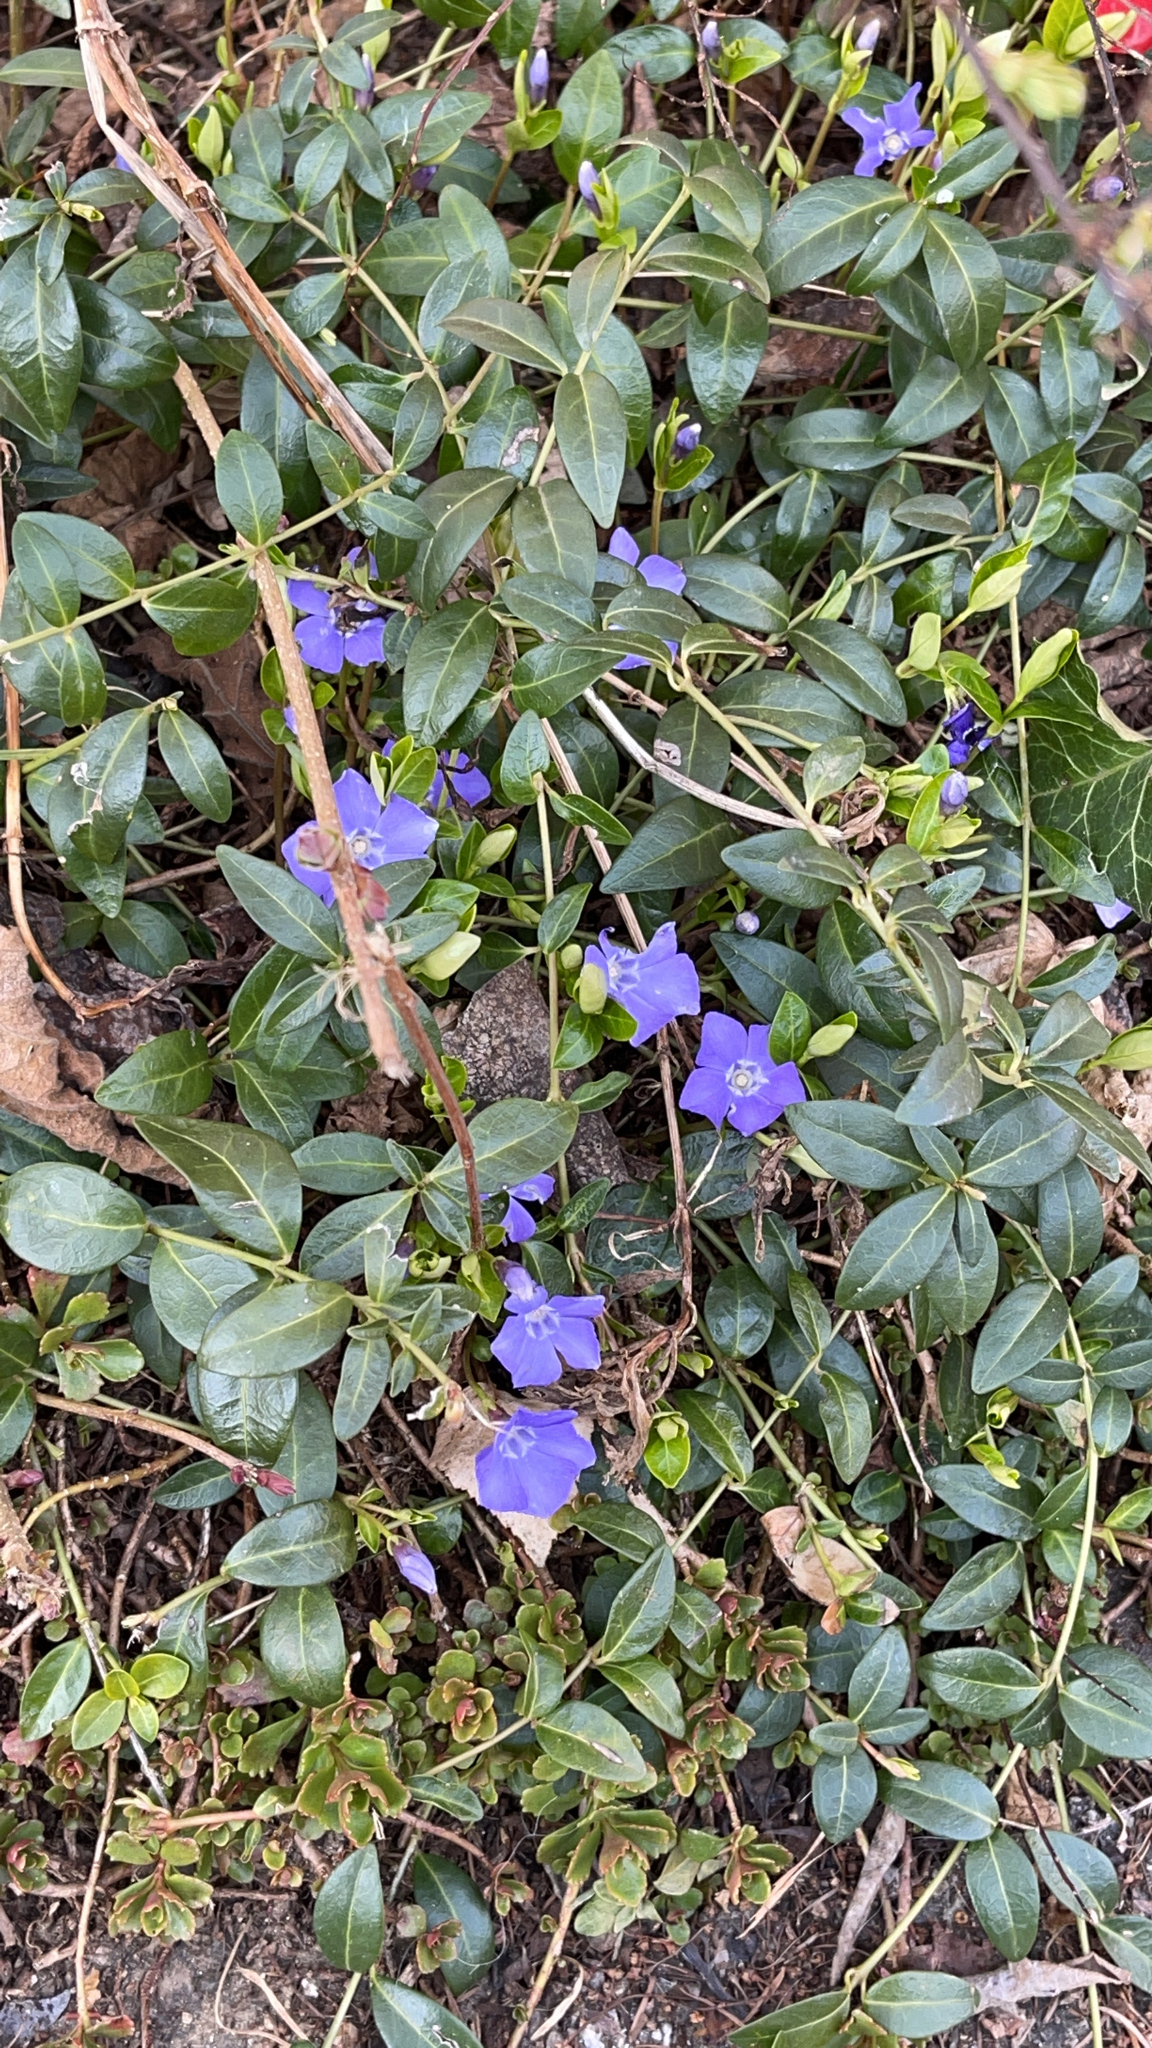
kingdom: Plantae
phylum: Tracheophyta
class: Magnoliopsida
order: Gentianales
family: Apocynaceae
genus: Vinca
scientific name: Vinca minor
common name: Lesser periwinkle
